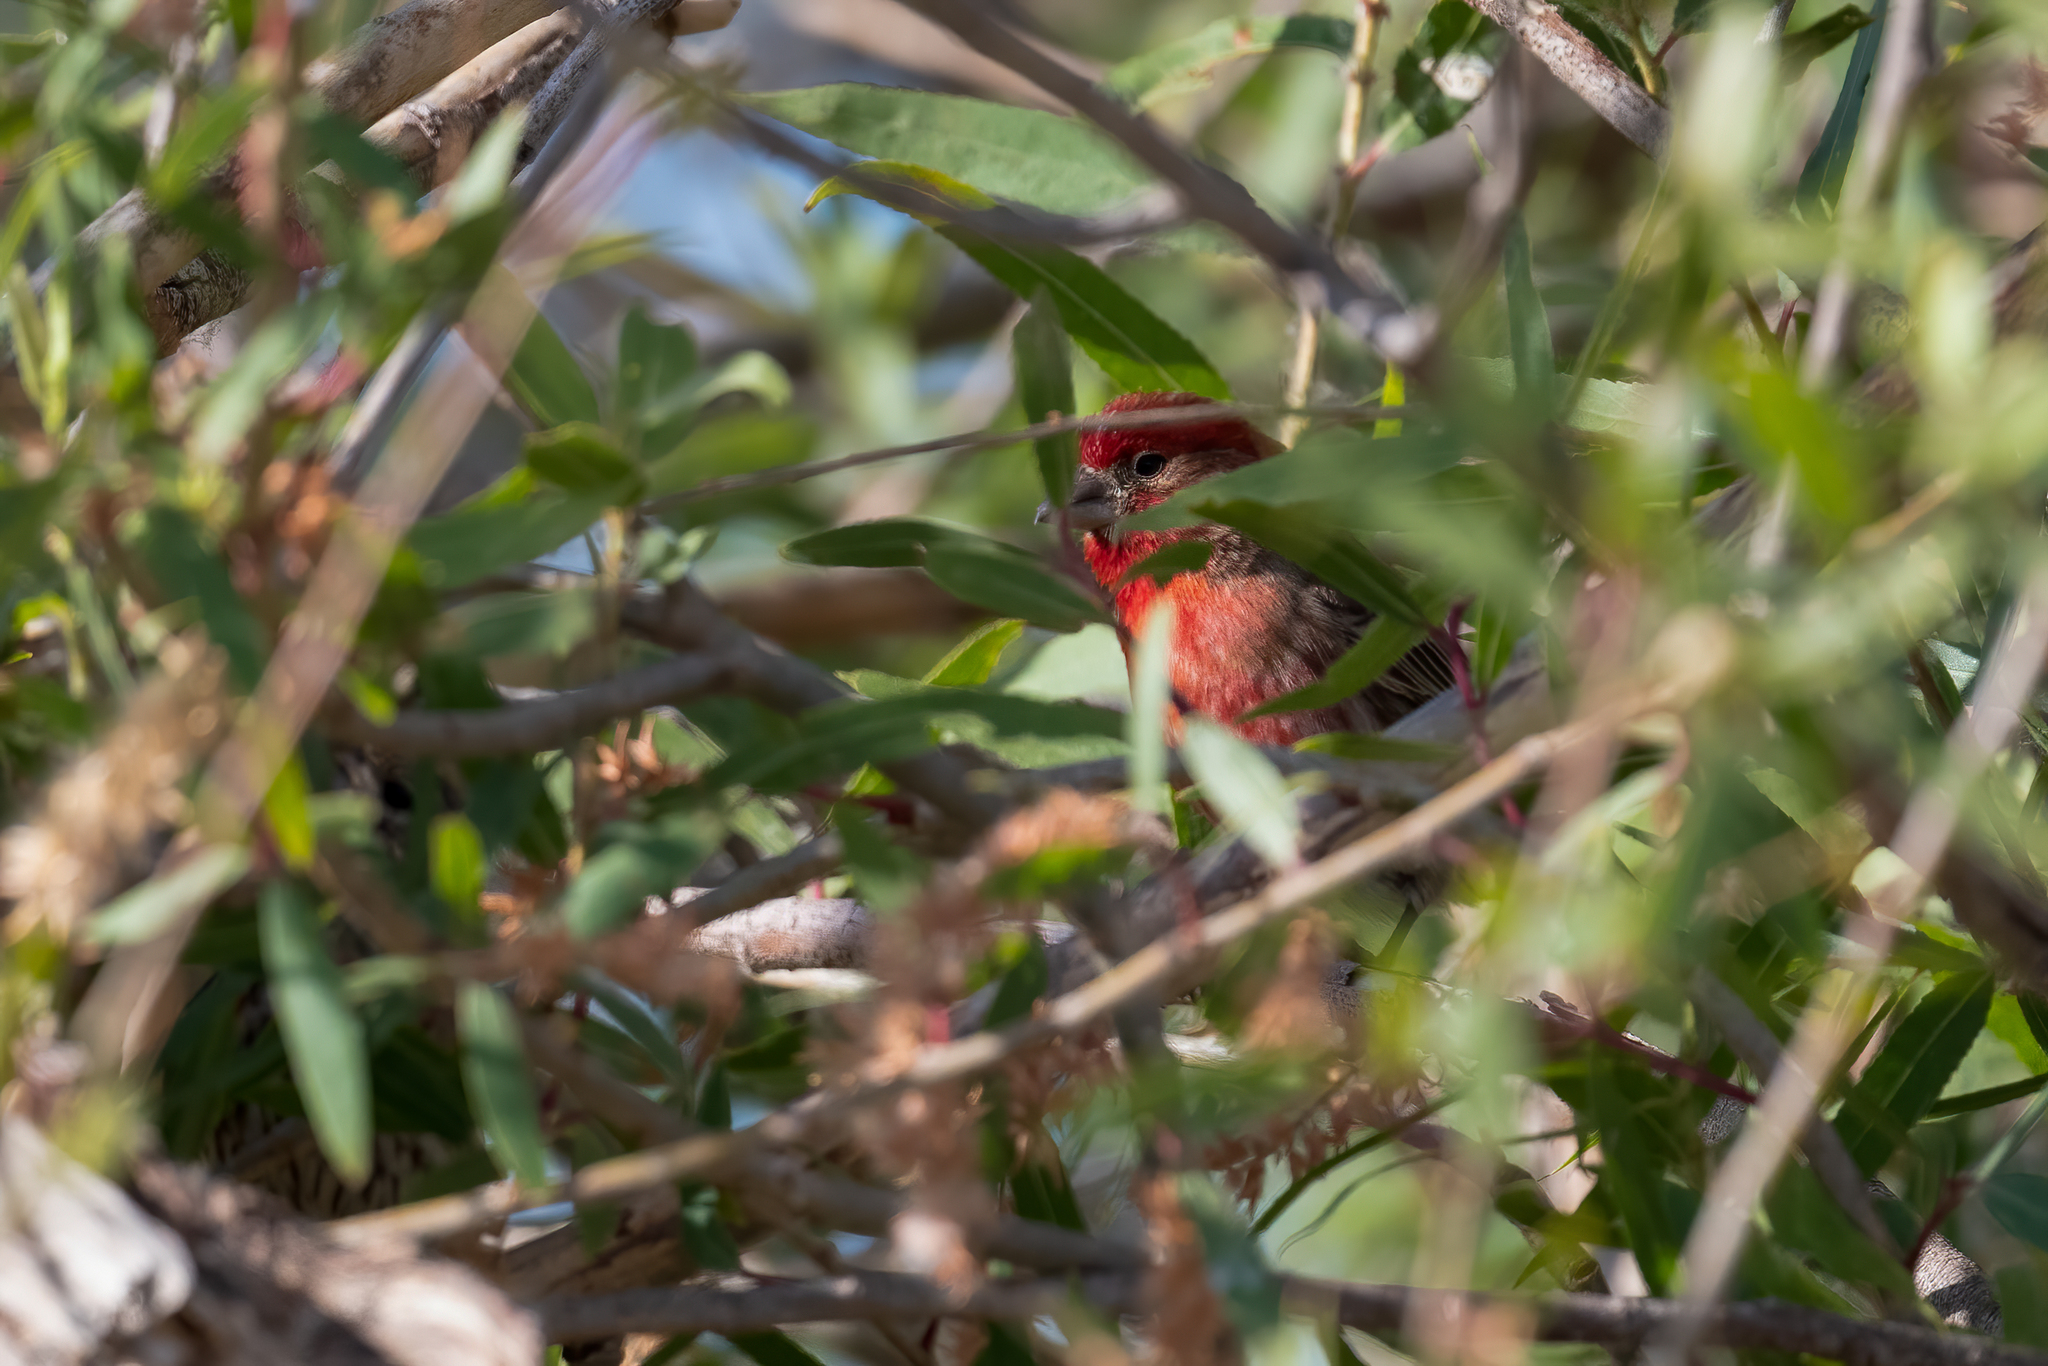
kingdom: Animalia
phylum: Chordata
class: Aves
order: Passeriformes
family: Fringillidae
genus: Haemorhous
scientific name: Haemorhous mexicanus
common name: House finch
